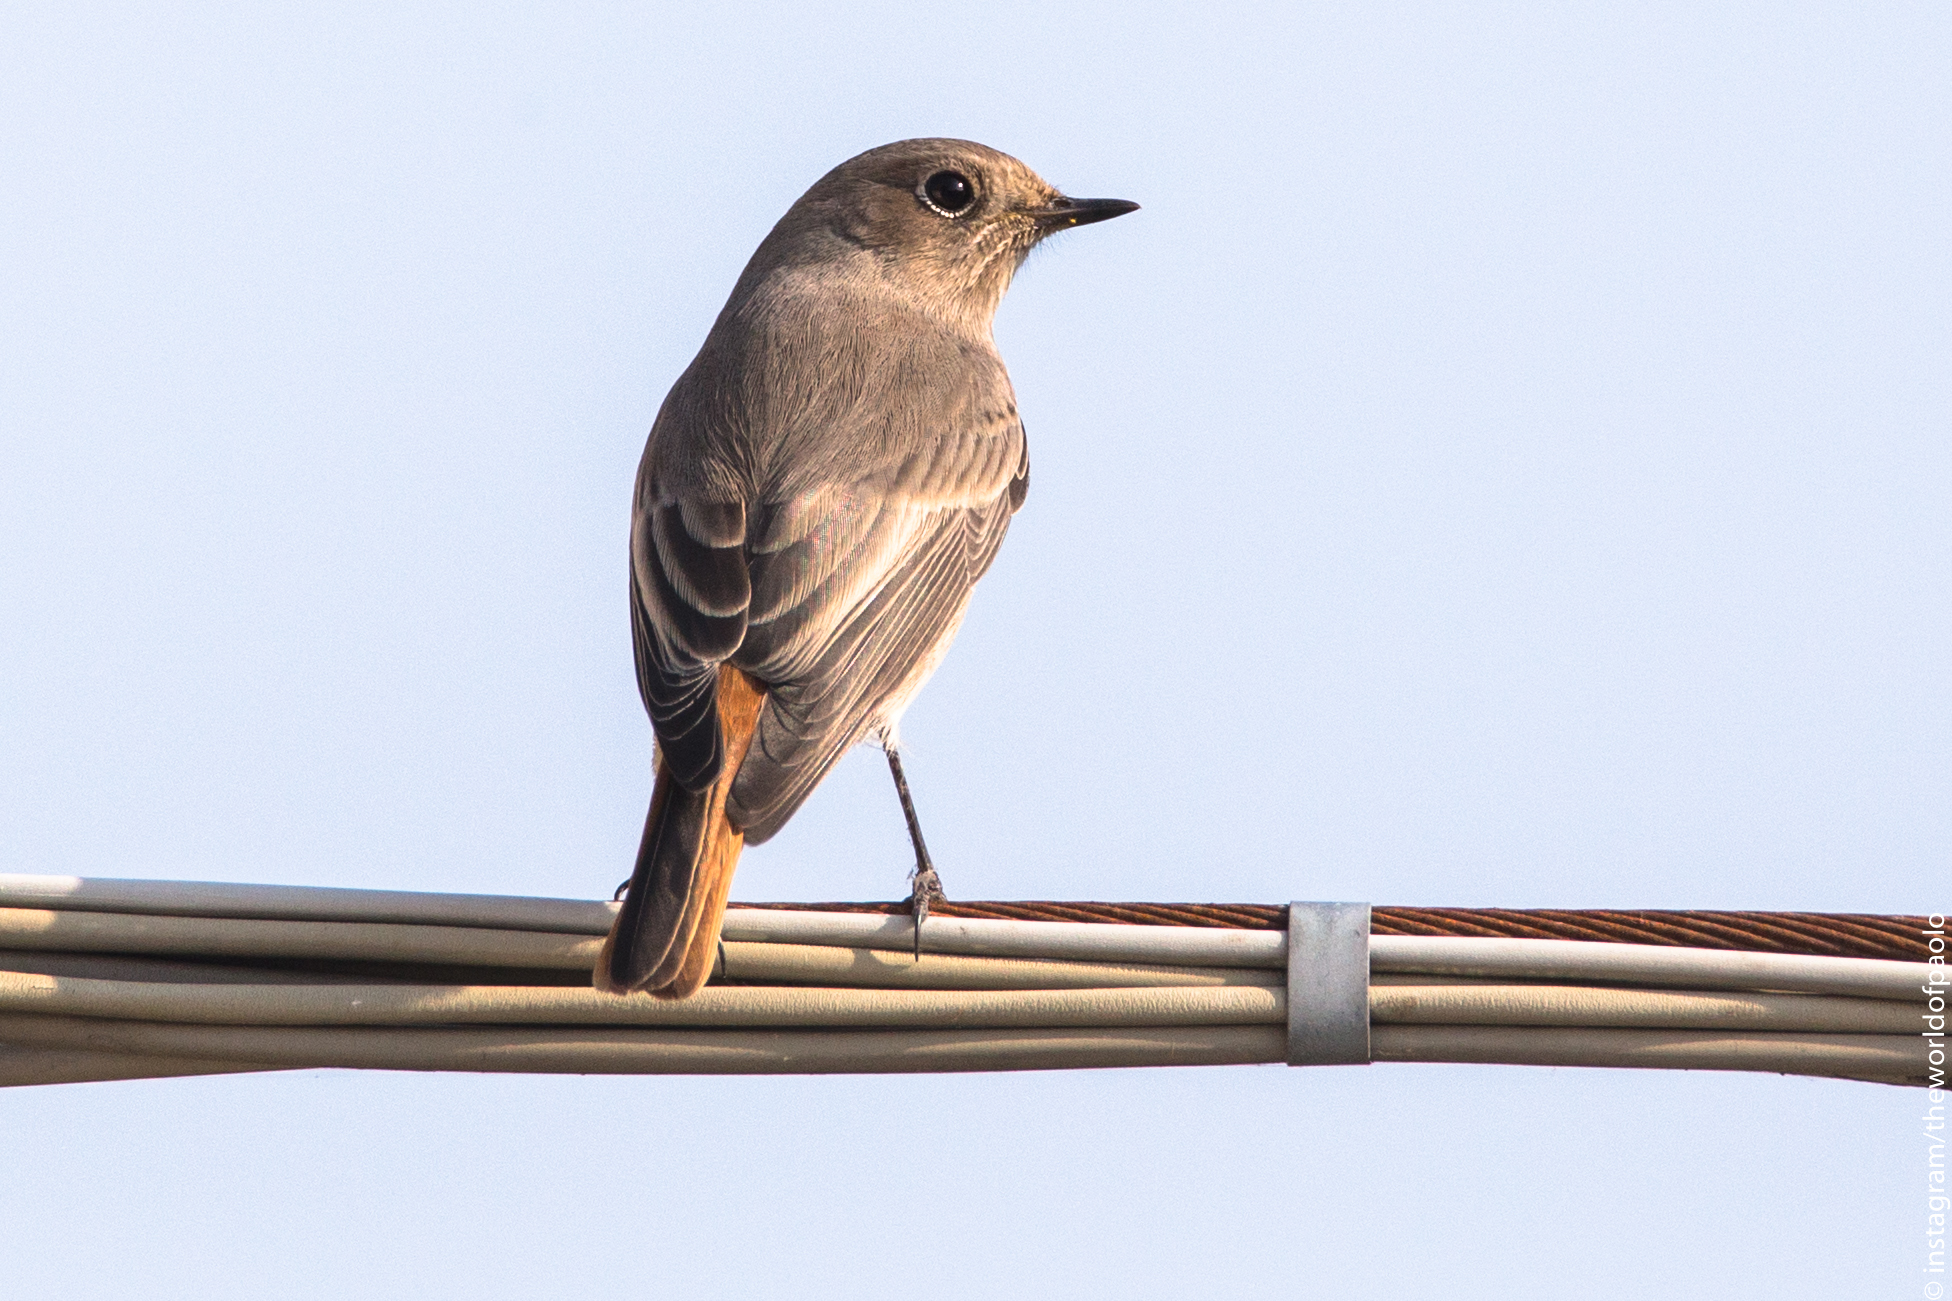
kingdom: Animalia
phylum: Chordata
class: Aves
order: Passeriformes
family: Muscicapidae
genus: Phoenicurus
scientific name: Phoenicurus ochruros
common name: Black redstart
